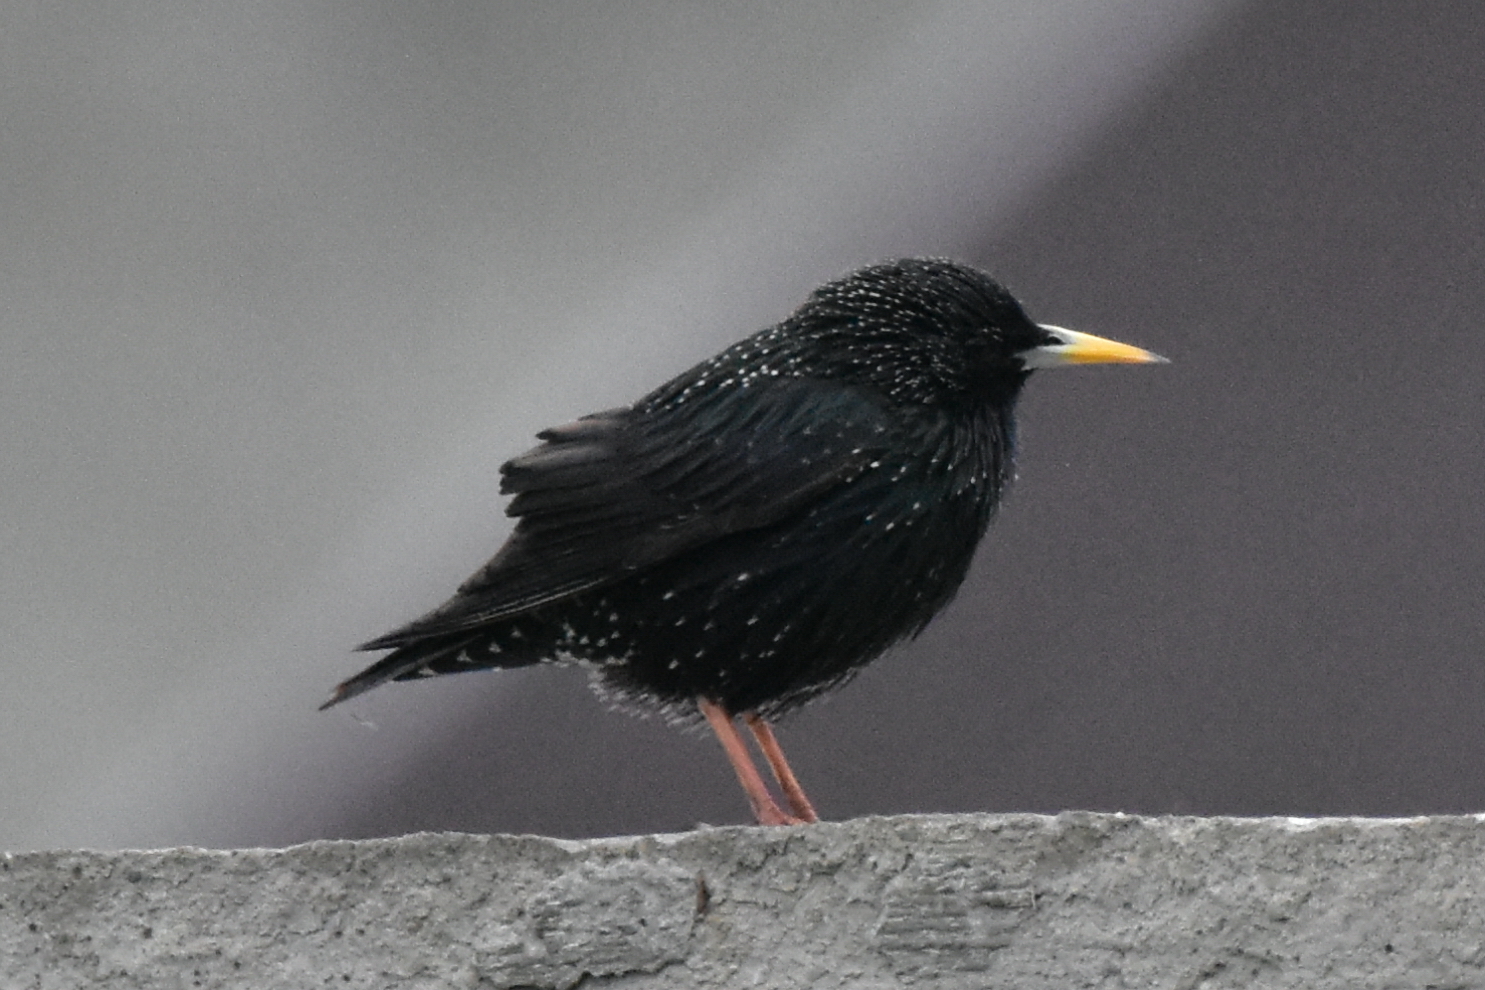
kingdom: Animalia
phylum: Chordata
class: Aves
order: Passeriformes
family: Sturnidae
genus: Sturnus
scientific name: Sturnus vulgaris
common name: Common starling
